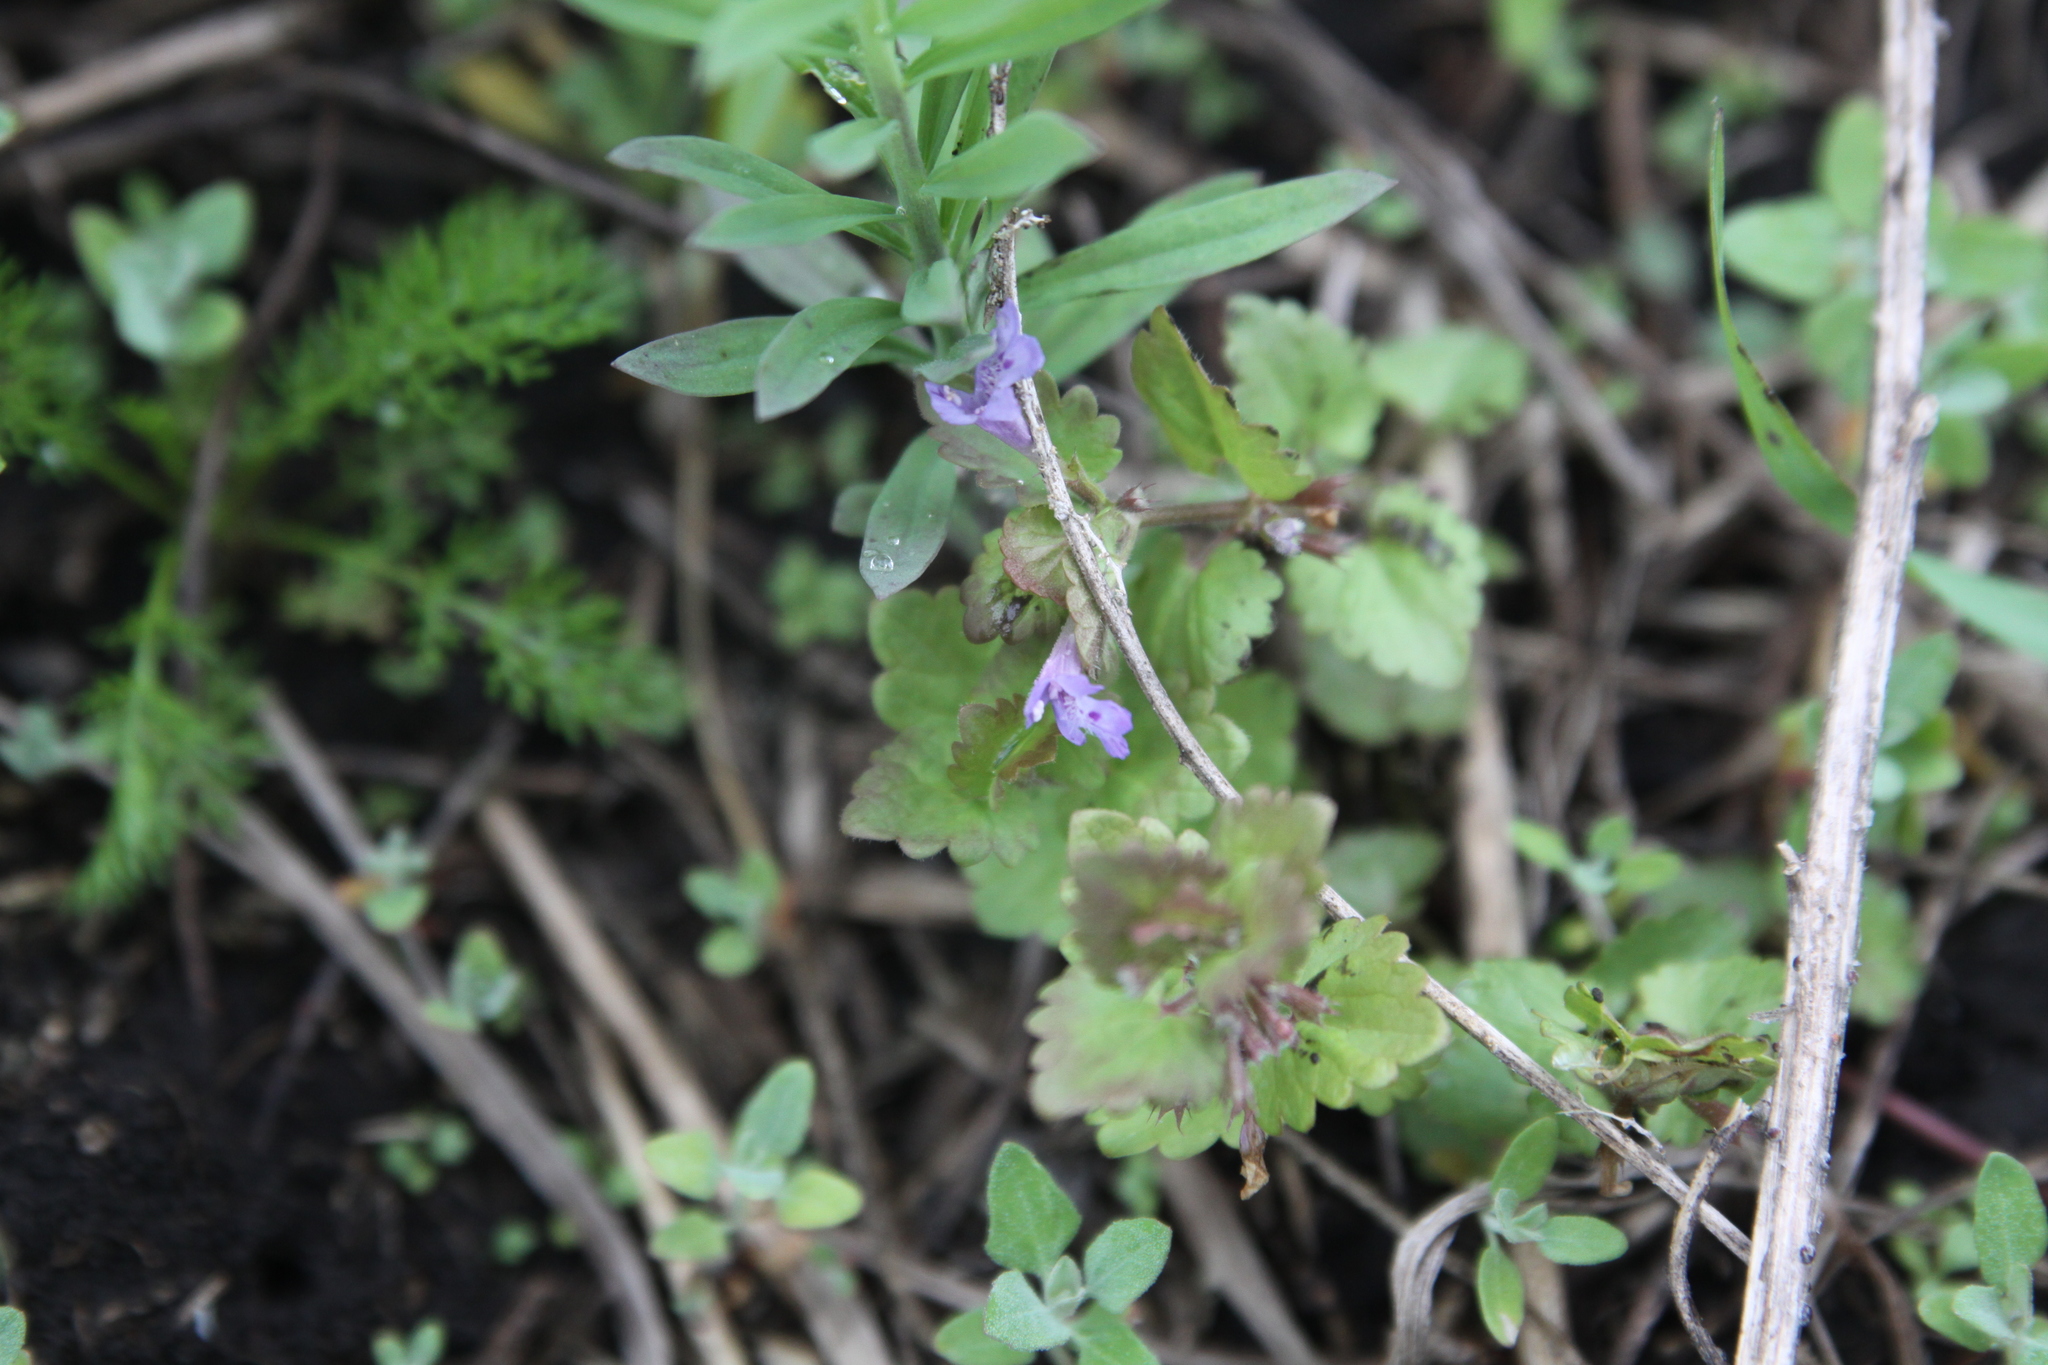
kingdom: Plantae
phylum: Tracheophyta
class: Magnoliopsida
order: Lamiales
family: Lamiaceae
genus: Glechoma
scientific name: Glechoma hederacea
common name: Ground ivy
